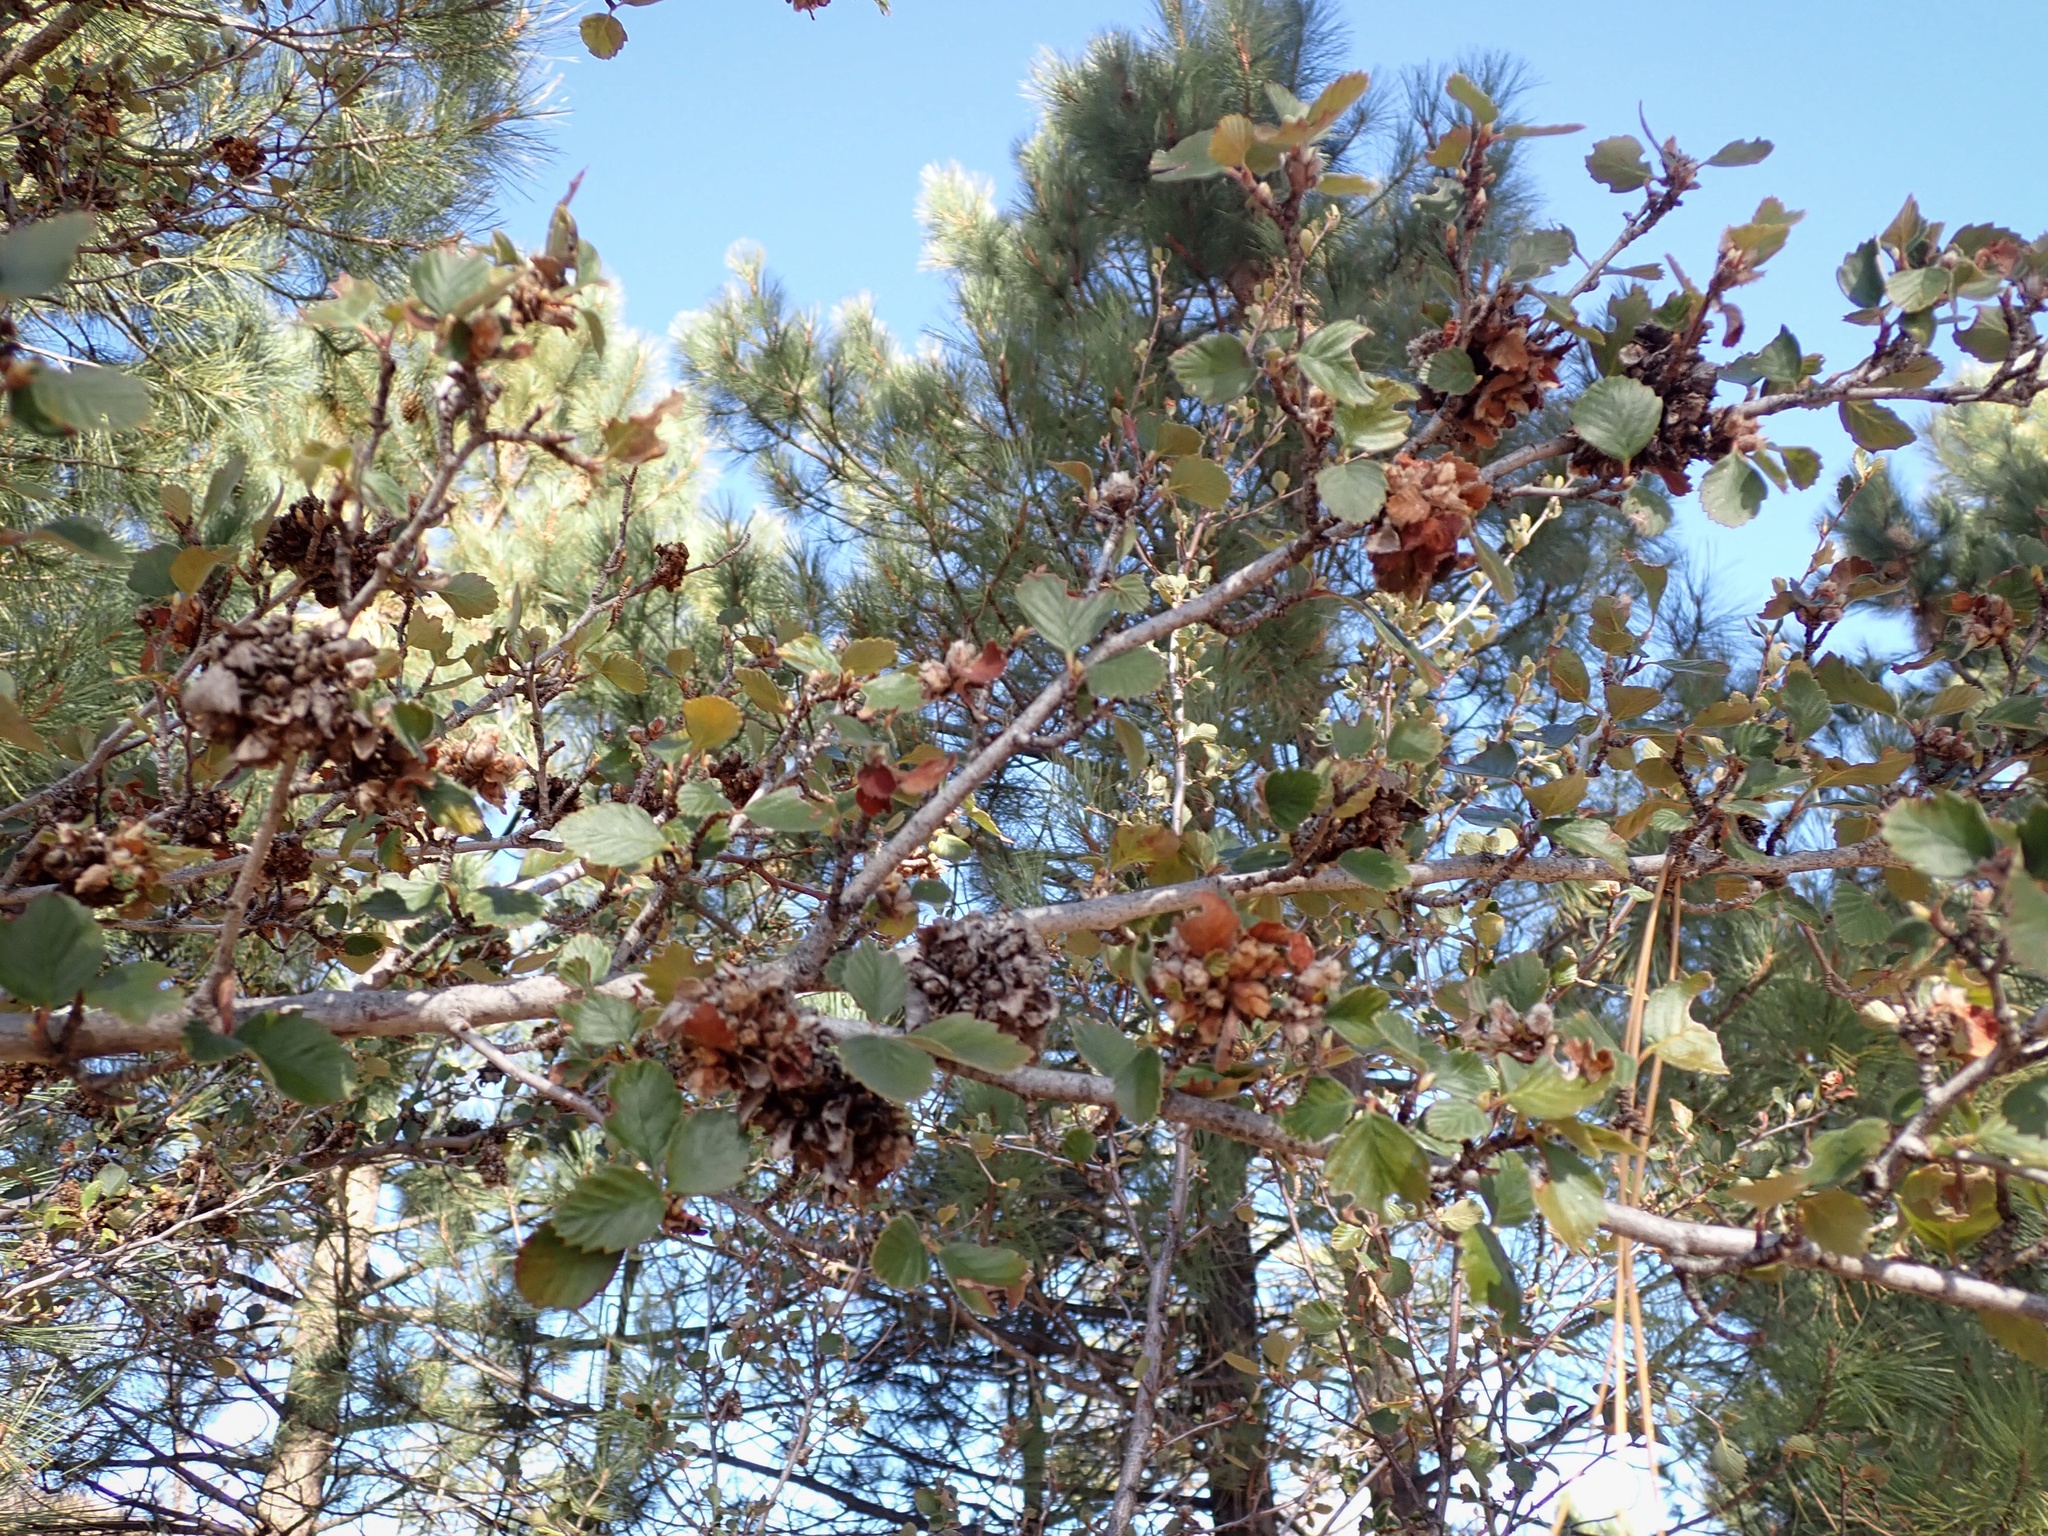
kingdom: Plantae
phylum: Tracheophyta
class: Magnoliopsida
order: Rosales
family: Rosaceae
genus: Cercocarpus
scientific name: Cercocarpus betuloides
